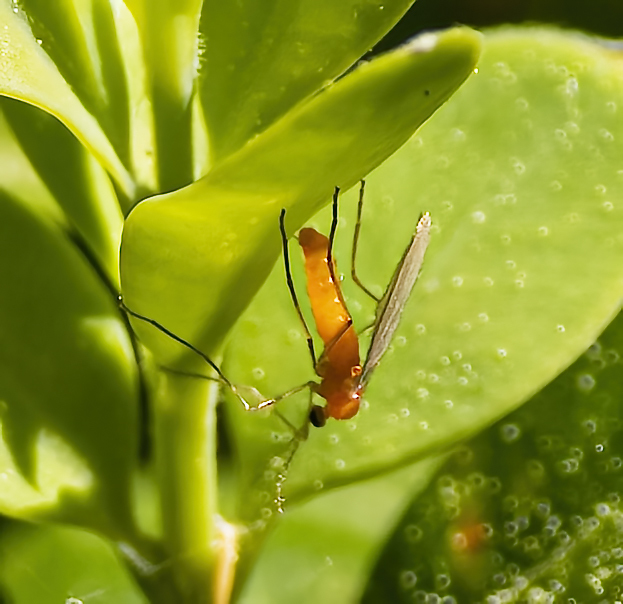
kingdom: Animalia
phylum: Arthropoda
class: Insecta
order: Diptera
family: Cecidomyiidae
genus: Monarthropalpus
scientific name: Monarthropalpus flavus
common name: Boxwood leafminer
